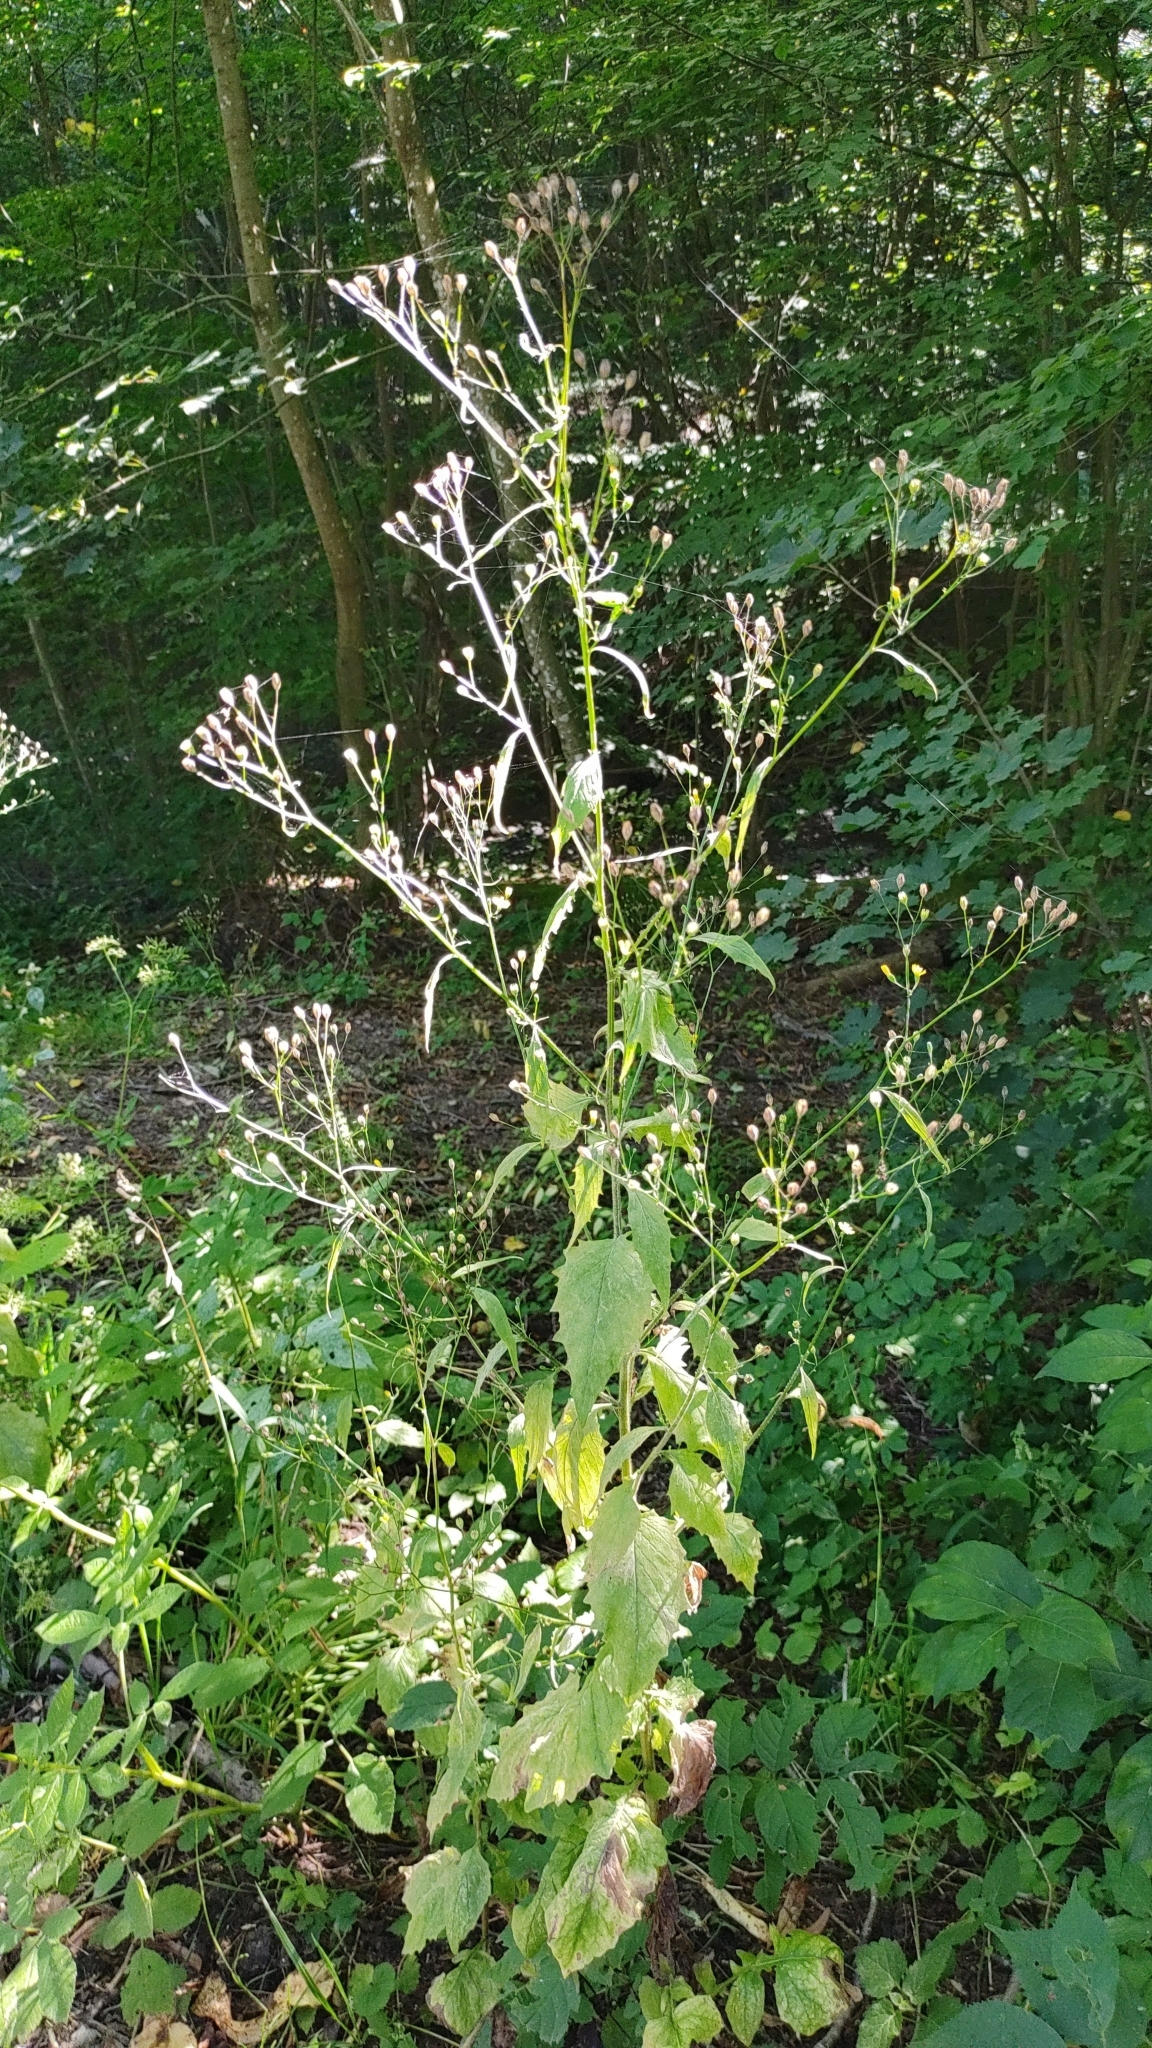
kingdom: Plantae
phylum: Tracheophyta
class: Magnoliopsida
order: Asterales
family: Asteraceae
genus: Lapsana
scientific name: Lapsana communis
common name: Nipplewort
